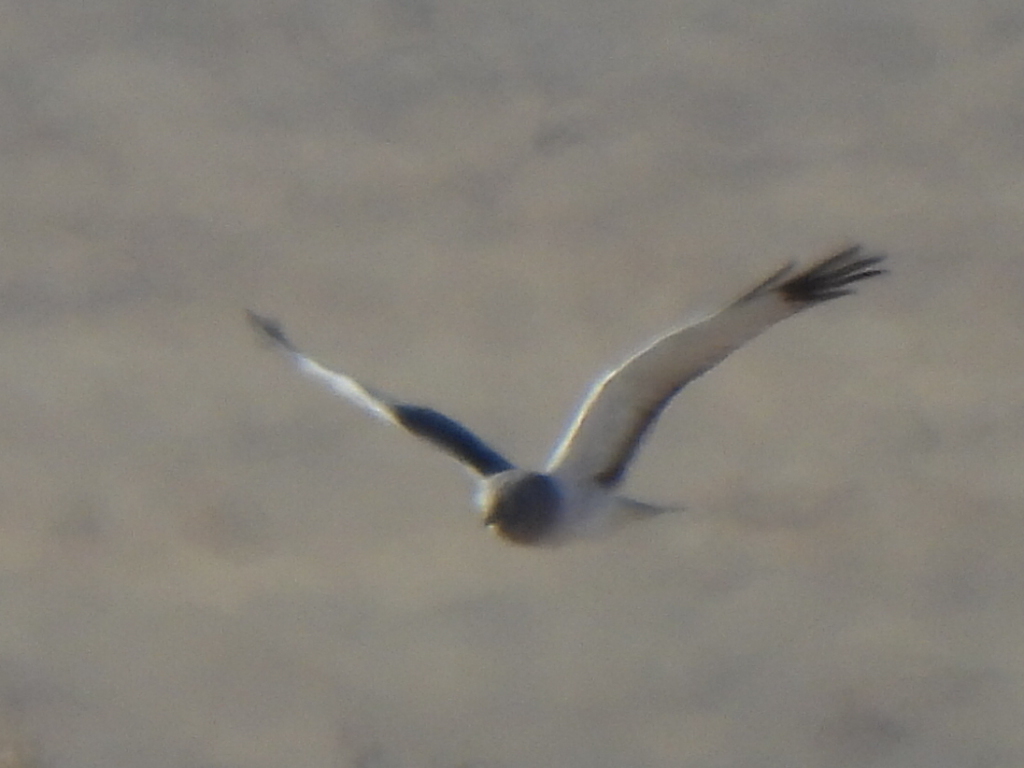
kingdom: Animalia
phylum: Chordata
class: Aves
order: Accipitriformes
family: Accipitridae
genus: Circus
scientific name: Circus cyaneus
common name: Hen harrier
